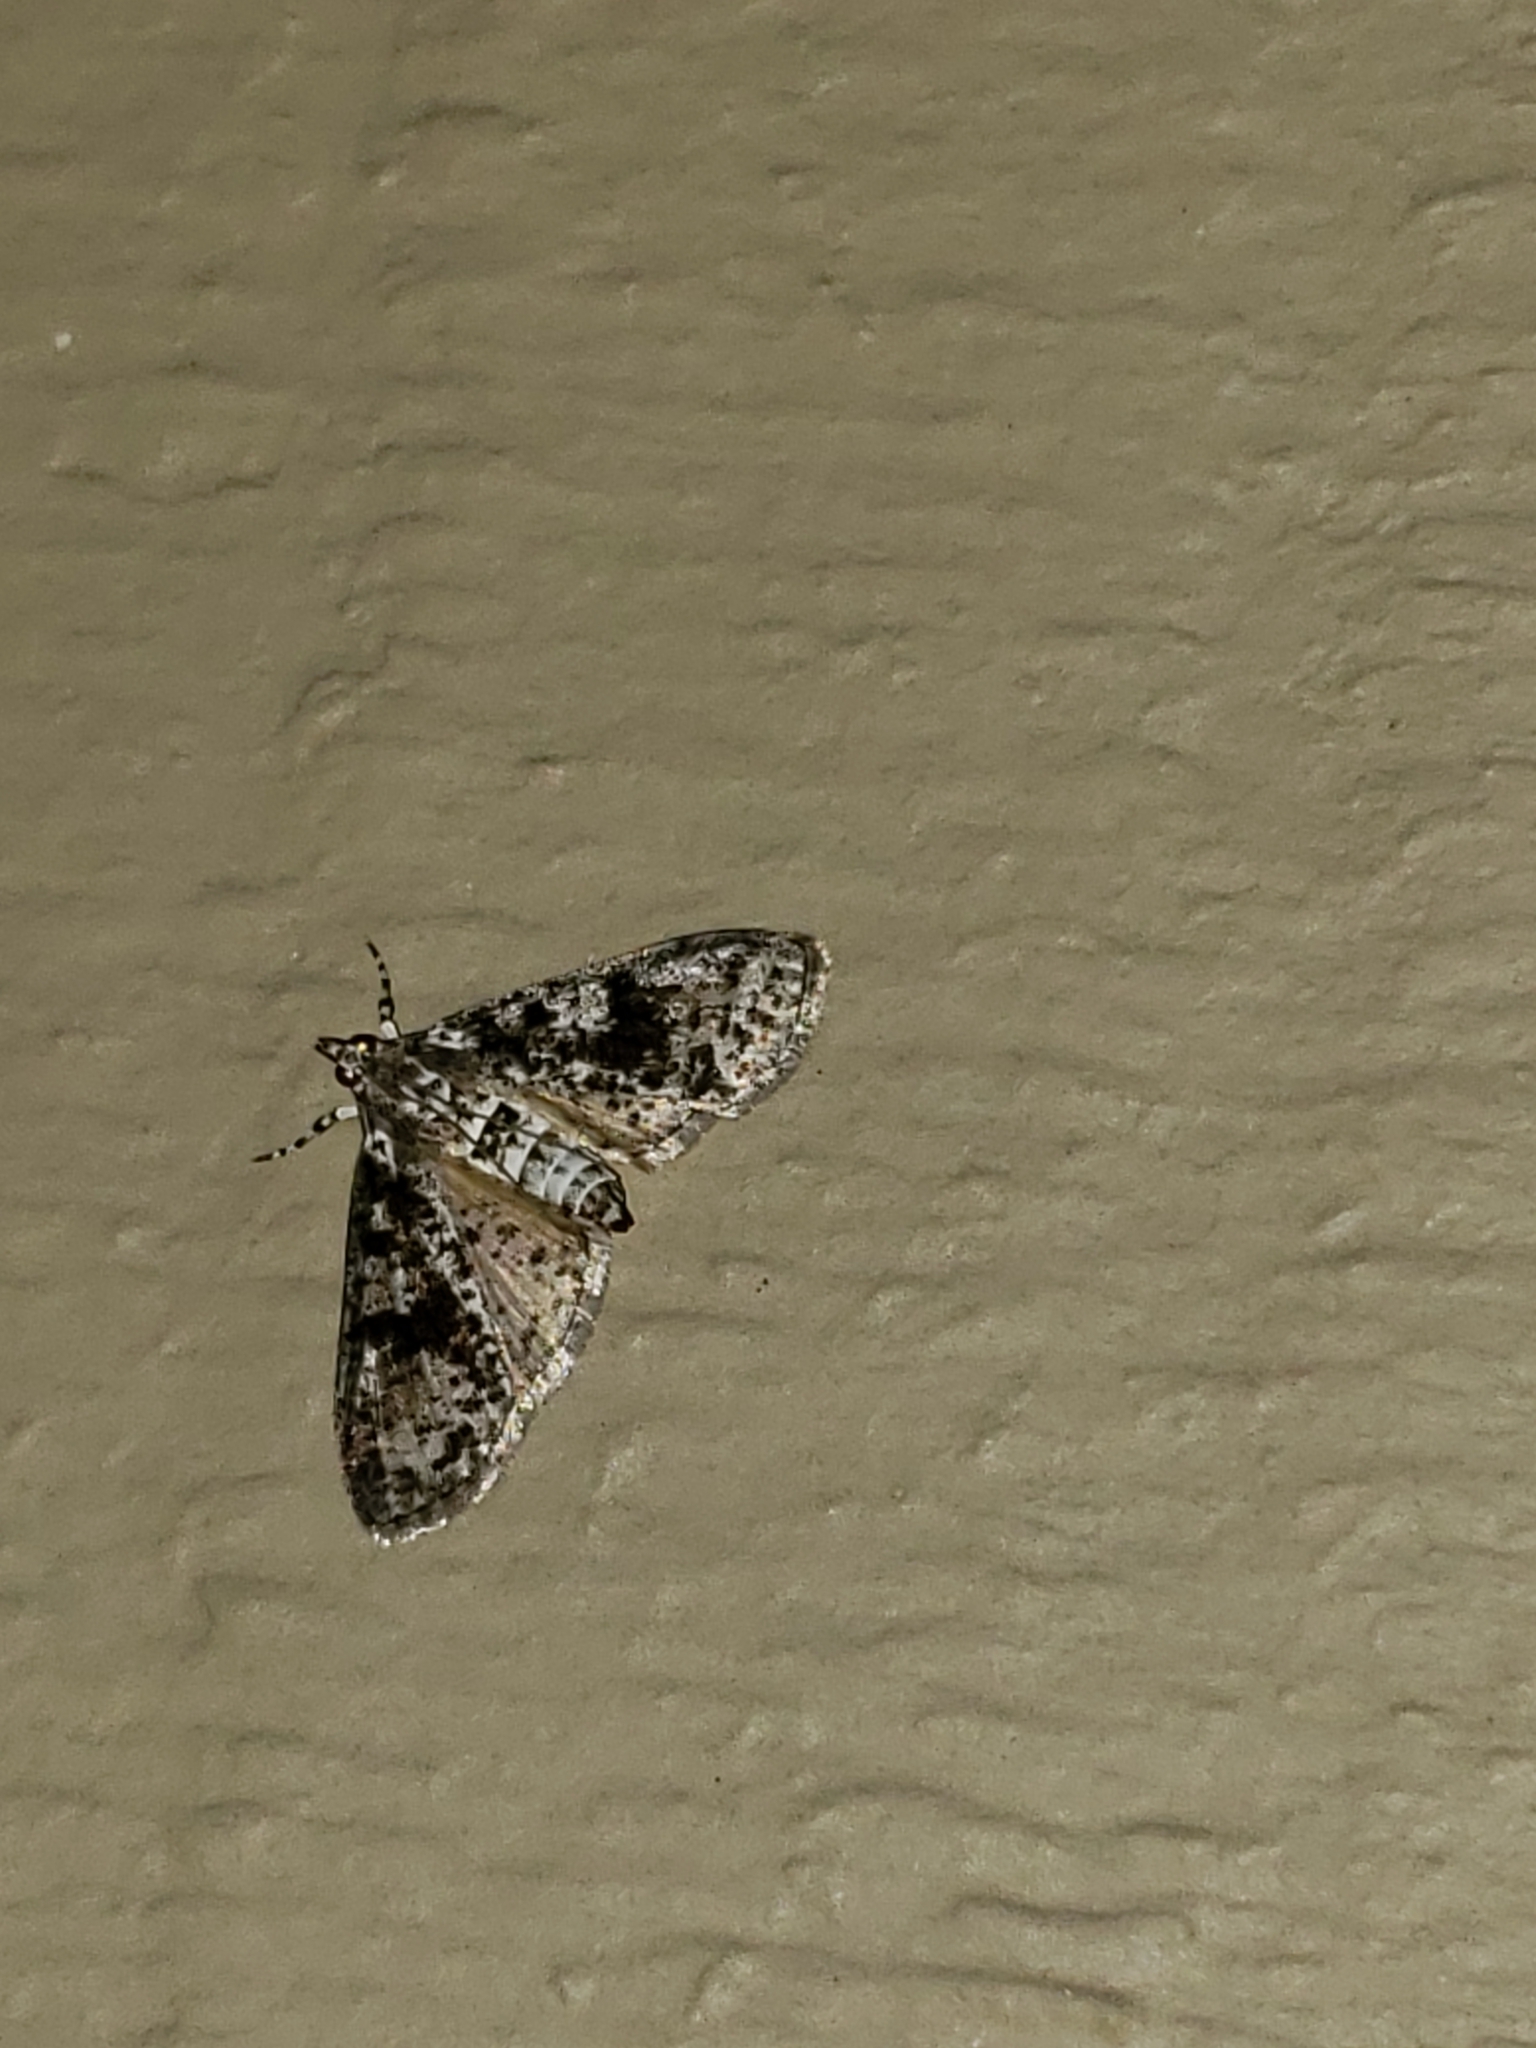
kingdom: Animalia
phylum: Arthropoda
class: Insecta
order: Lepidoptera
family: Crambidae
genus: Palpita
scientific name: Palpita magniferalis
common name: Splendid palpita moth
